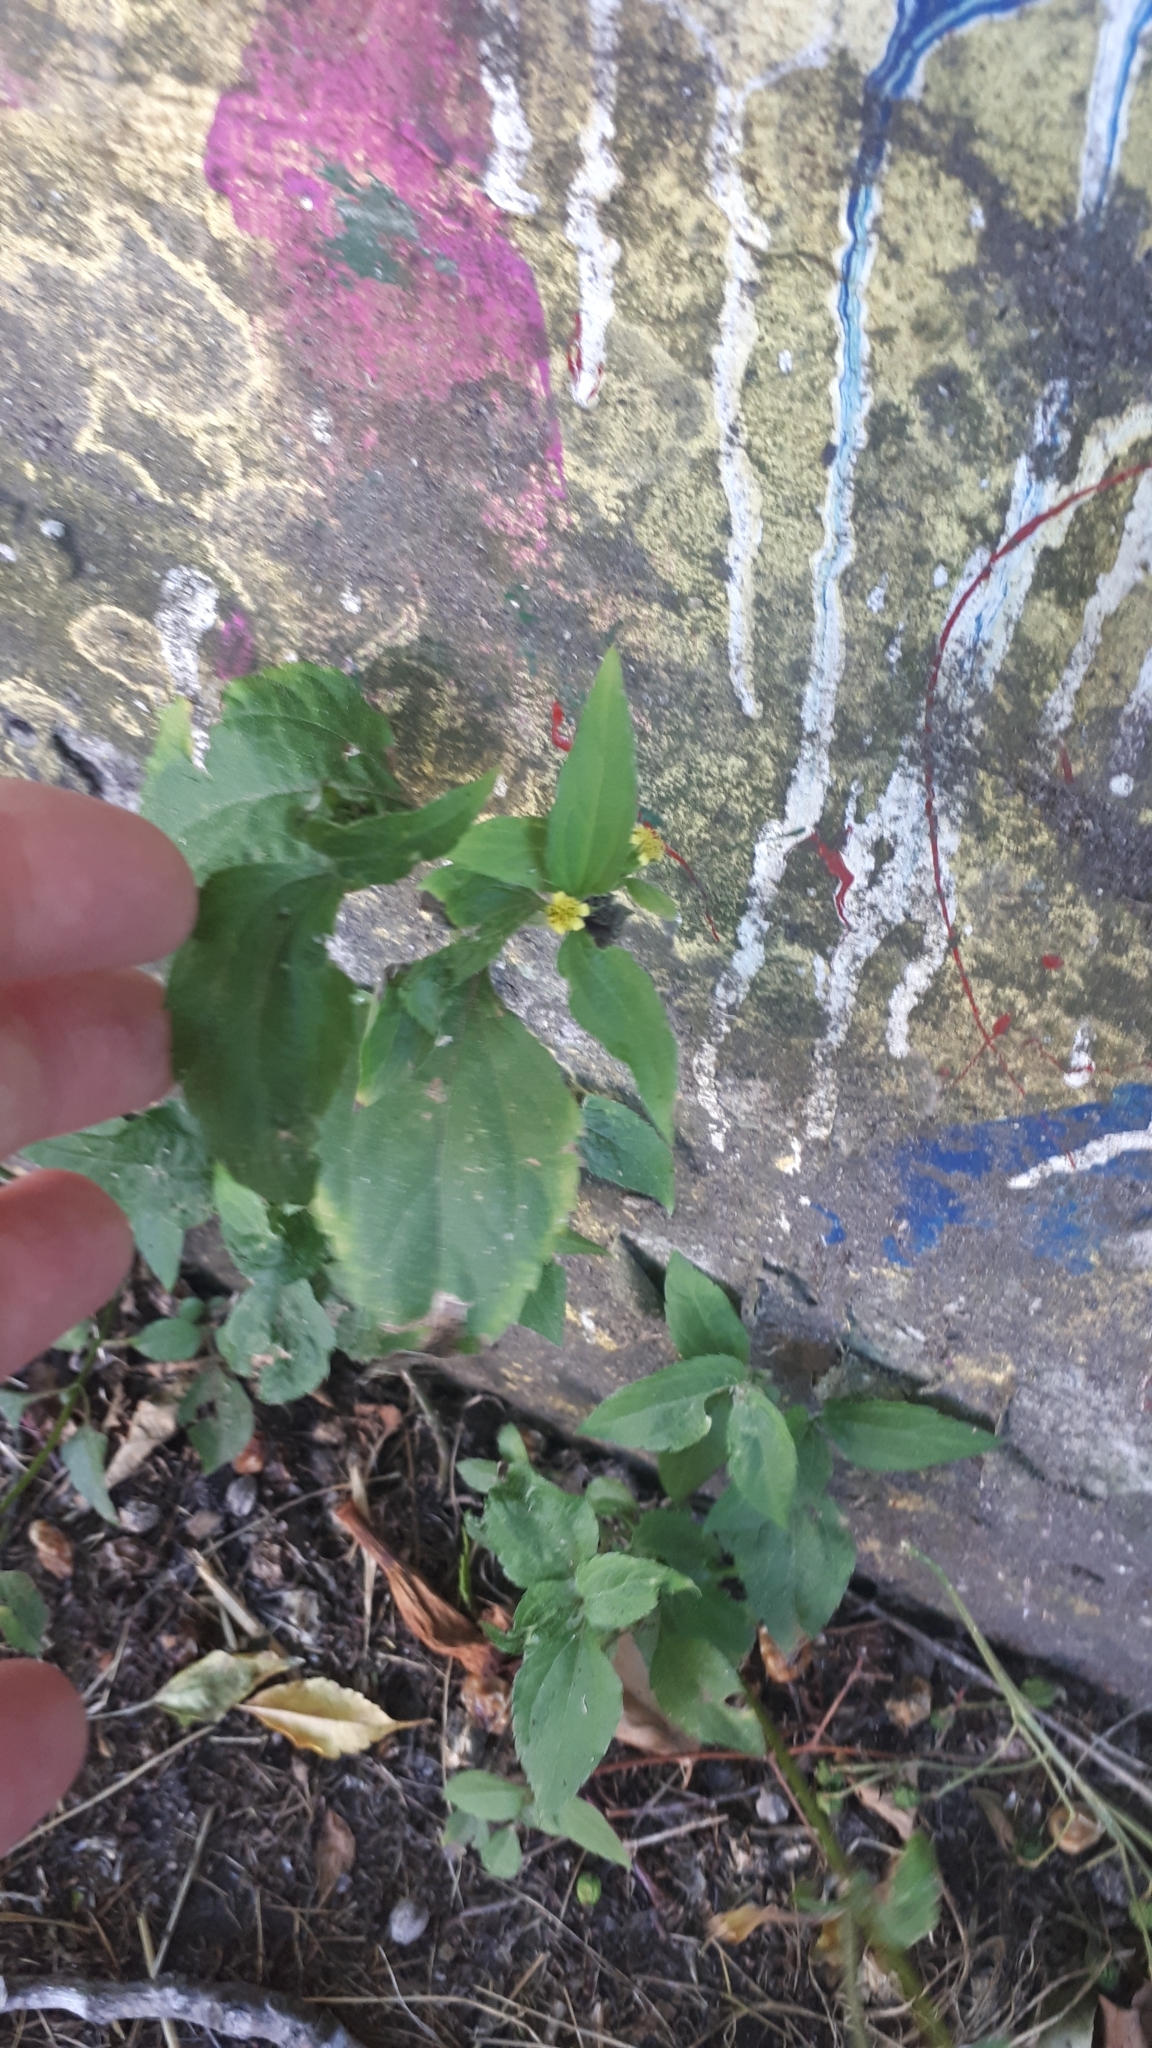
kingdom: Plantae
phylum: Tracheophyta
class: Magnoliopsida
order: Asterales
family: Asteraceae
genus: Calyptocarpus
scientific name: Calyptocarpus brasiliensis
